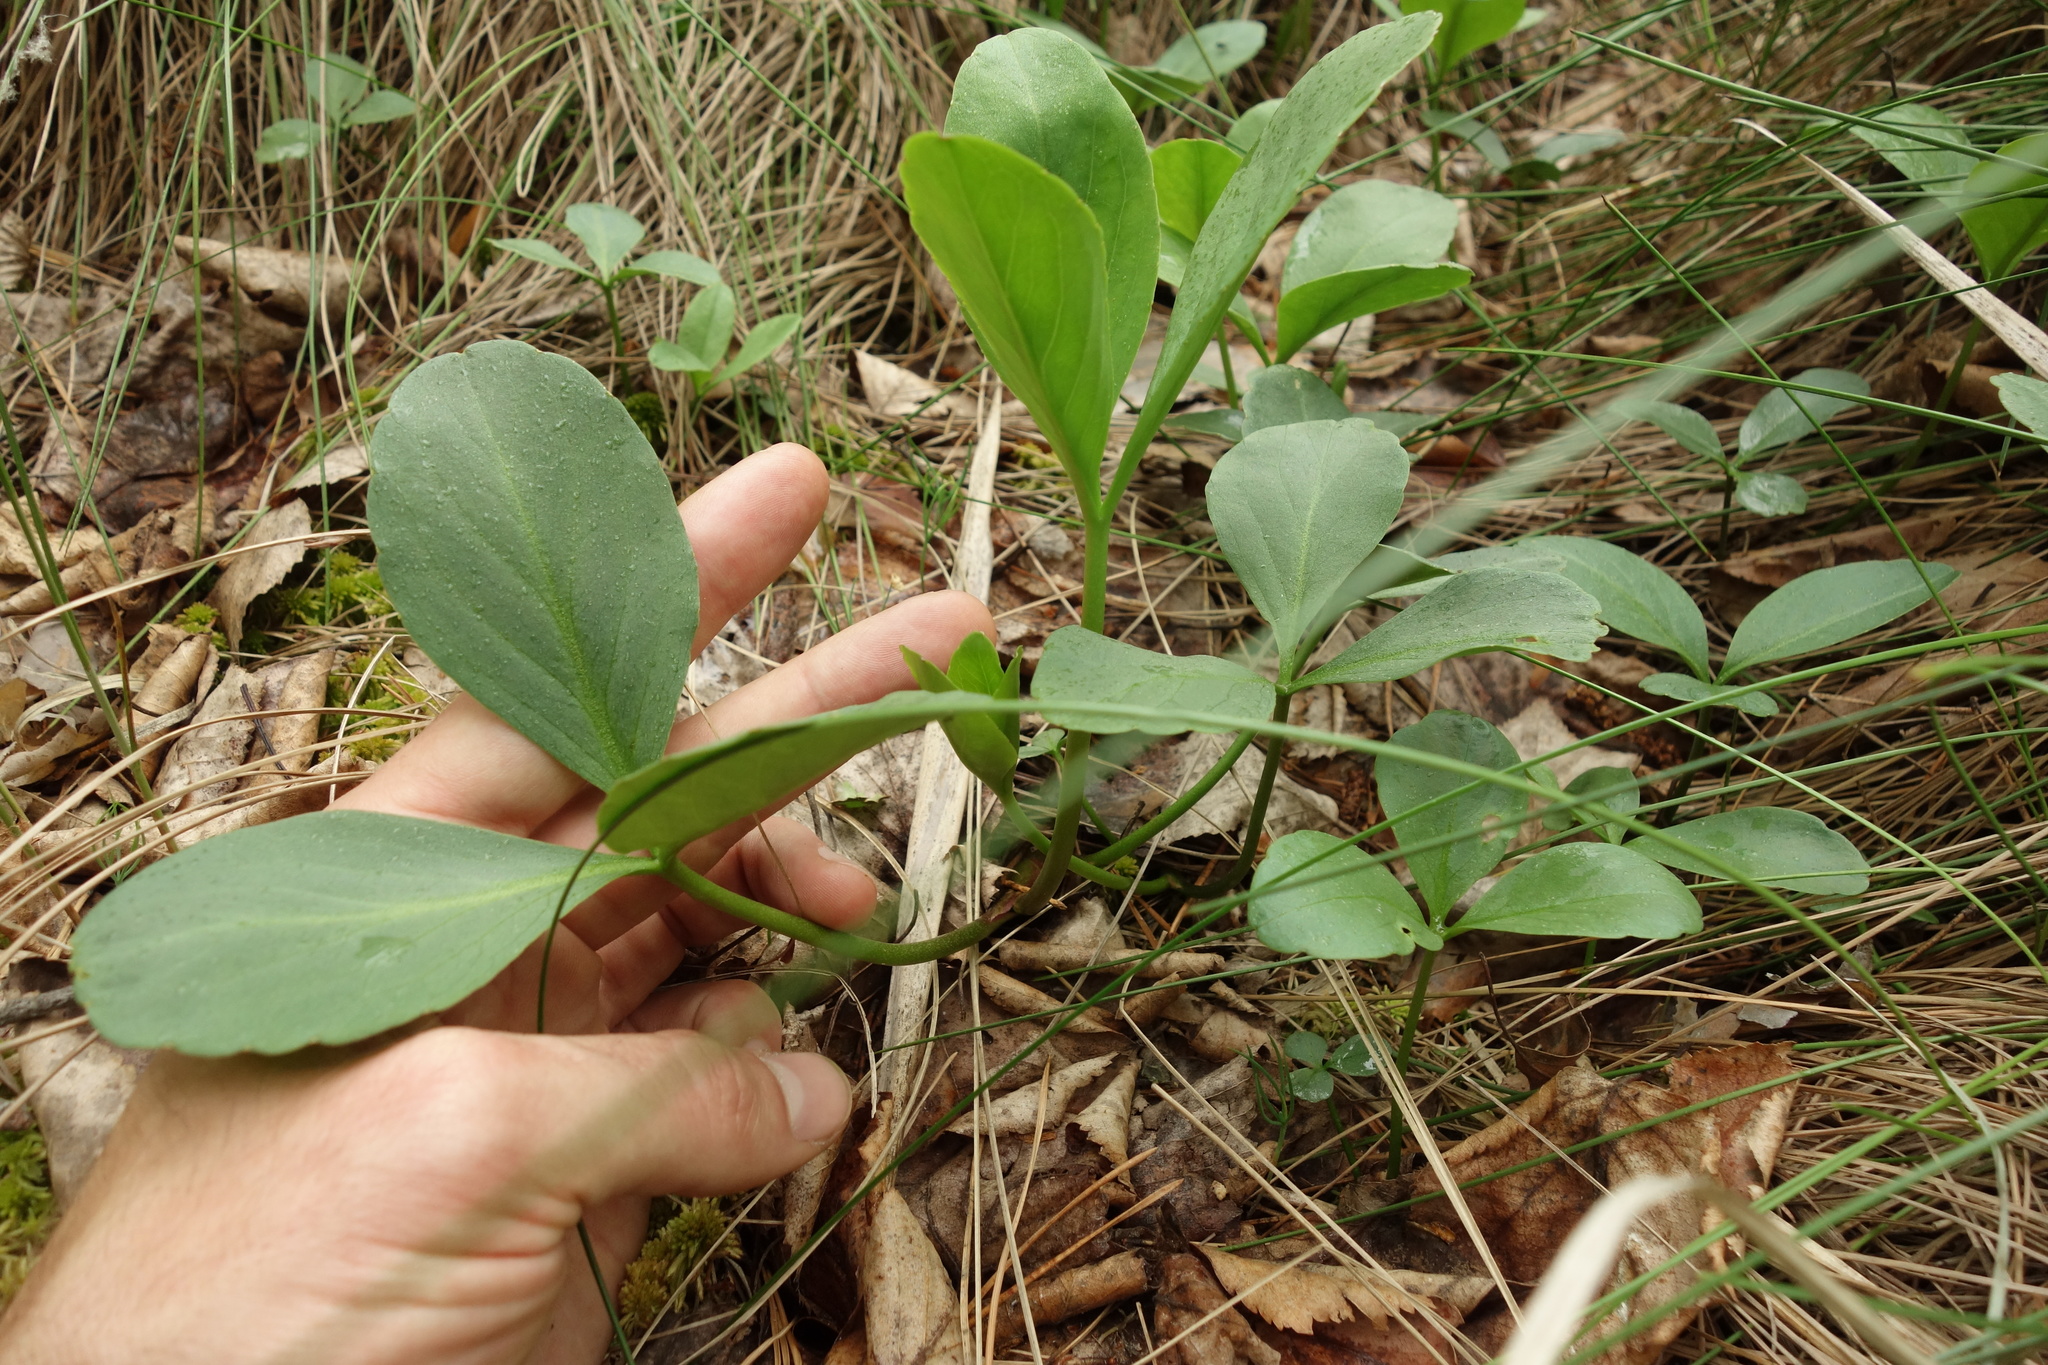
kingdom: Plantae
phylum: Tracheophyta
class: Magnoliopsida
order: Asterales
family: Menyanthaceae
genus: Menyanthes
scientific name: Menyanthes trifoliata
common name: Bogbean
